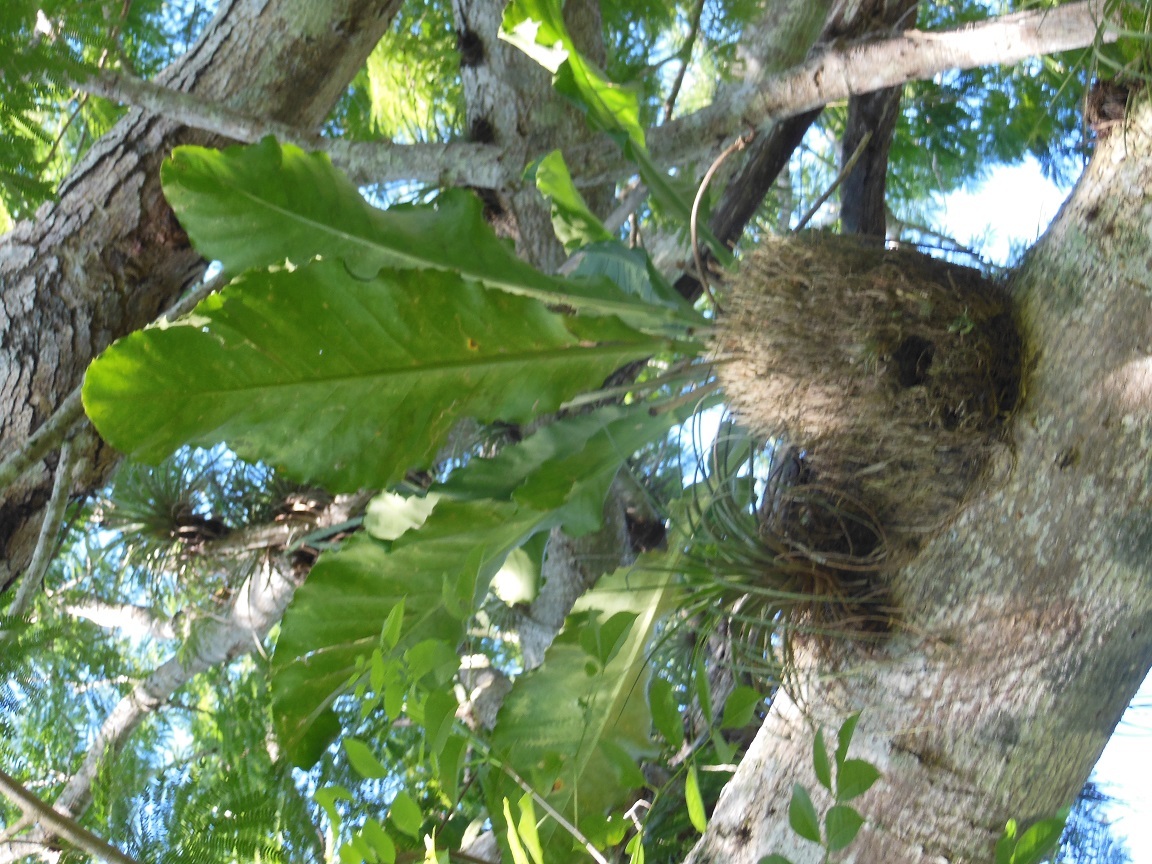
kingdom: Plantae
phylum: Tracheophyta
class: Liliopsida
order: Alismatales
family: Araceae
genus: Anthurium
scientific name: Anthurium schlechtendalii
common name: Laceleaf
